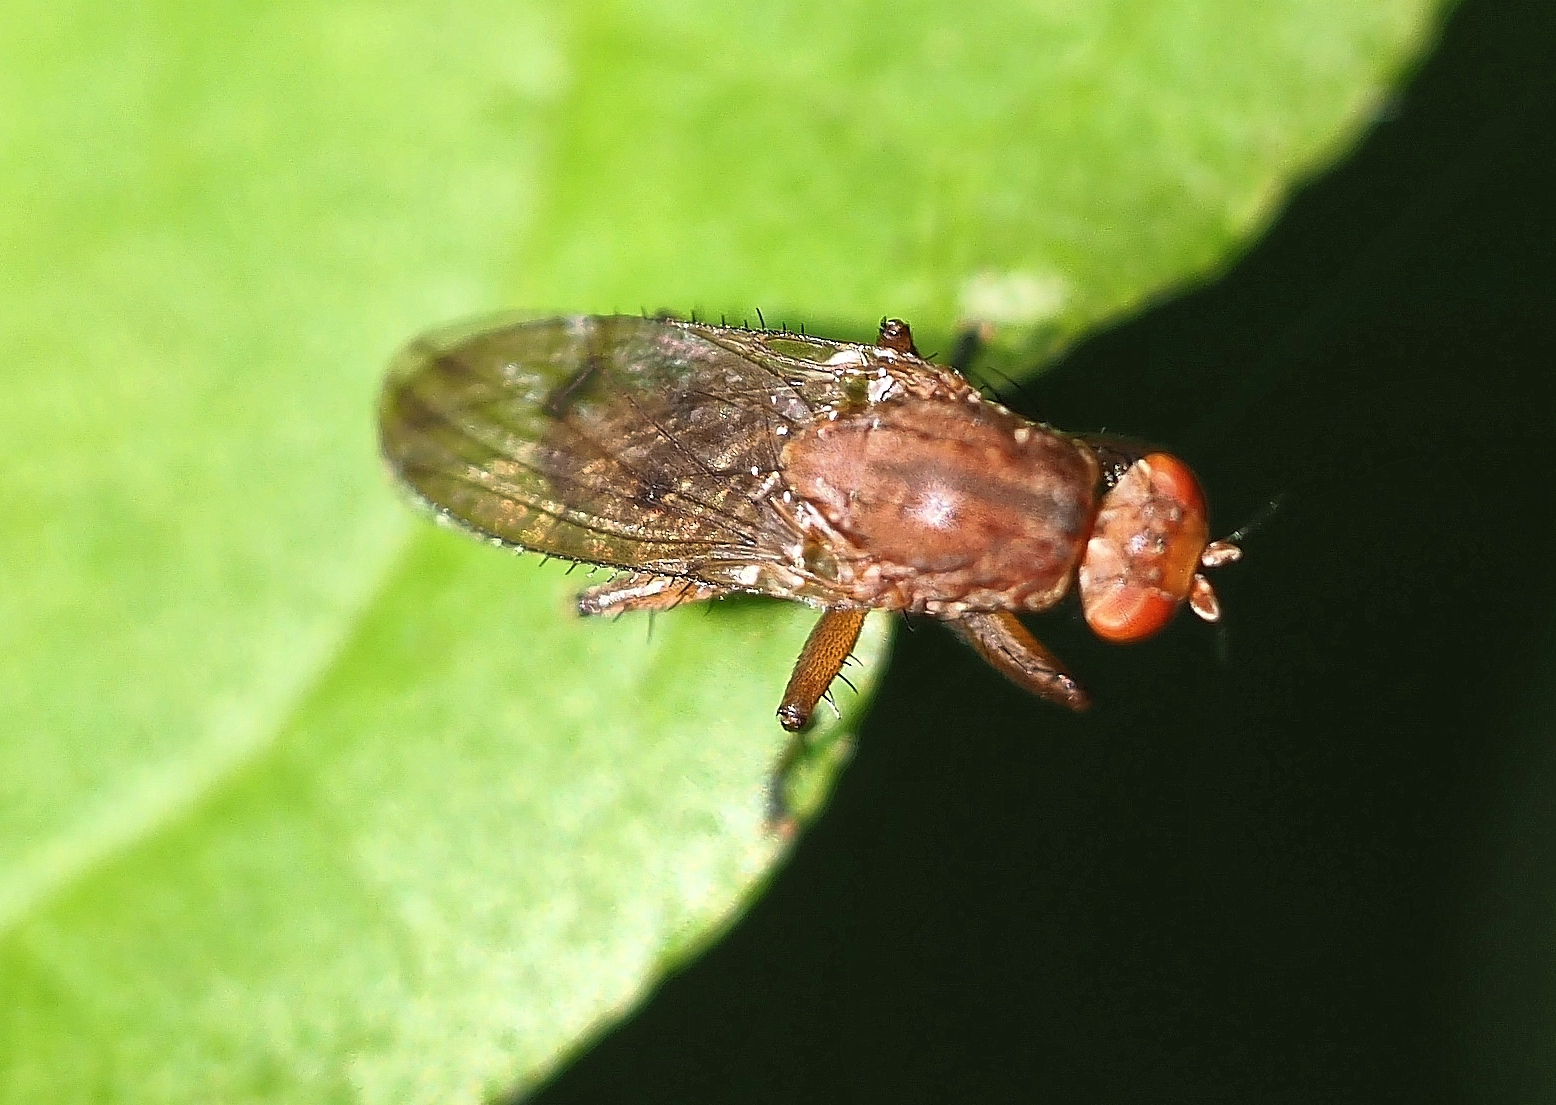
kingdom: Animalia
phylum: Arthropoda
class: Insecta
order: Diptera
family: Heleomyzidae
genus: Suillia
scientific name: Suillia affinis
